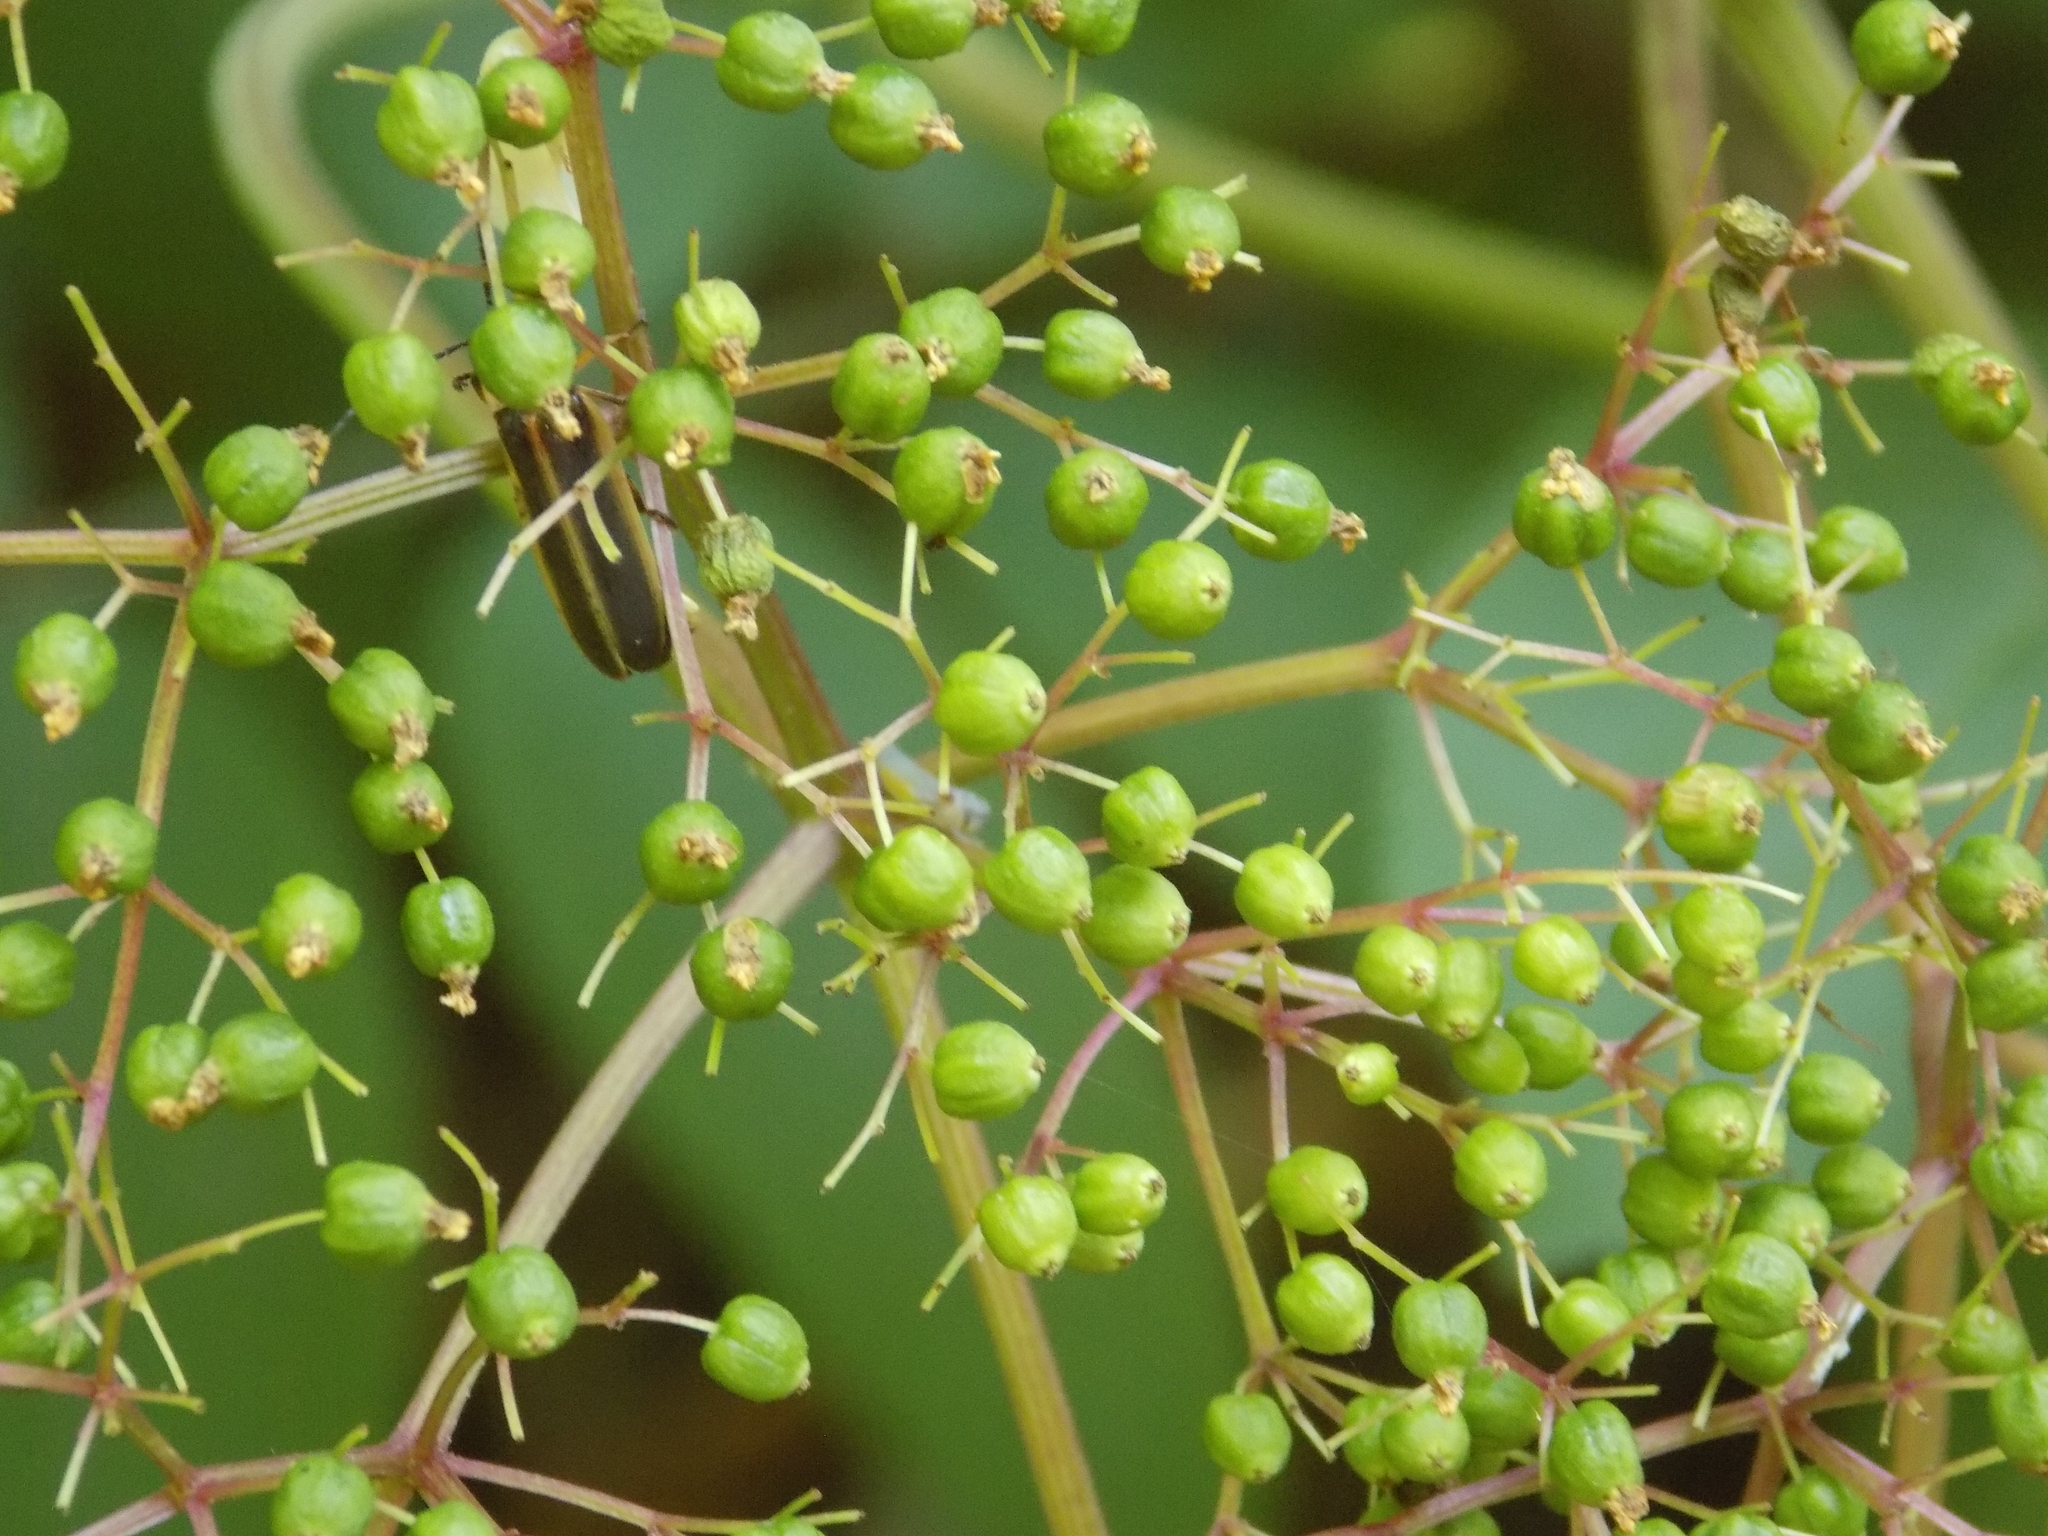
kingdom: Plantae
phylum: Tracheophyta
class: Magnoliopsida
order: Dipsacales
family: Viburnaceae
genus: Sambucus
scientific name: Sambucus canadensis
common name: American elder
